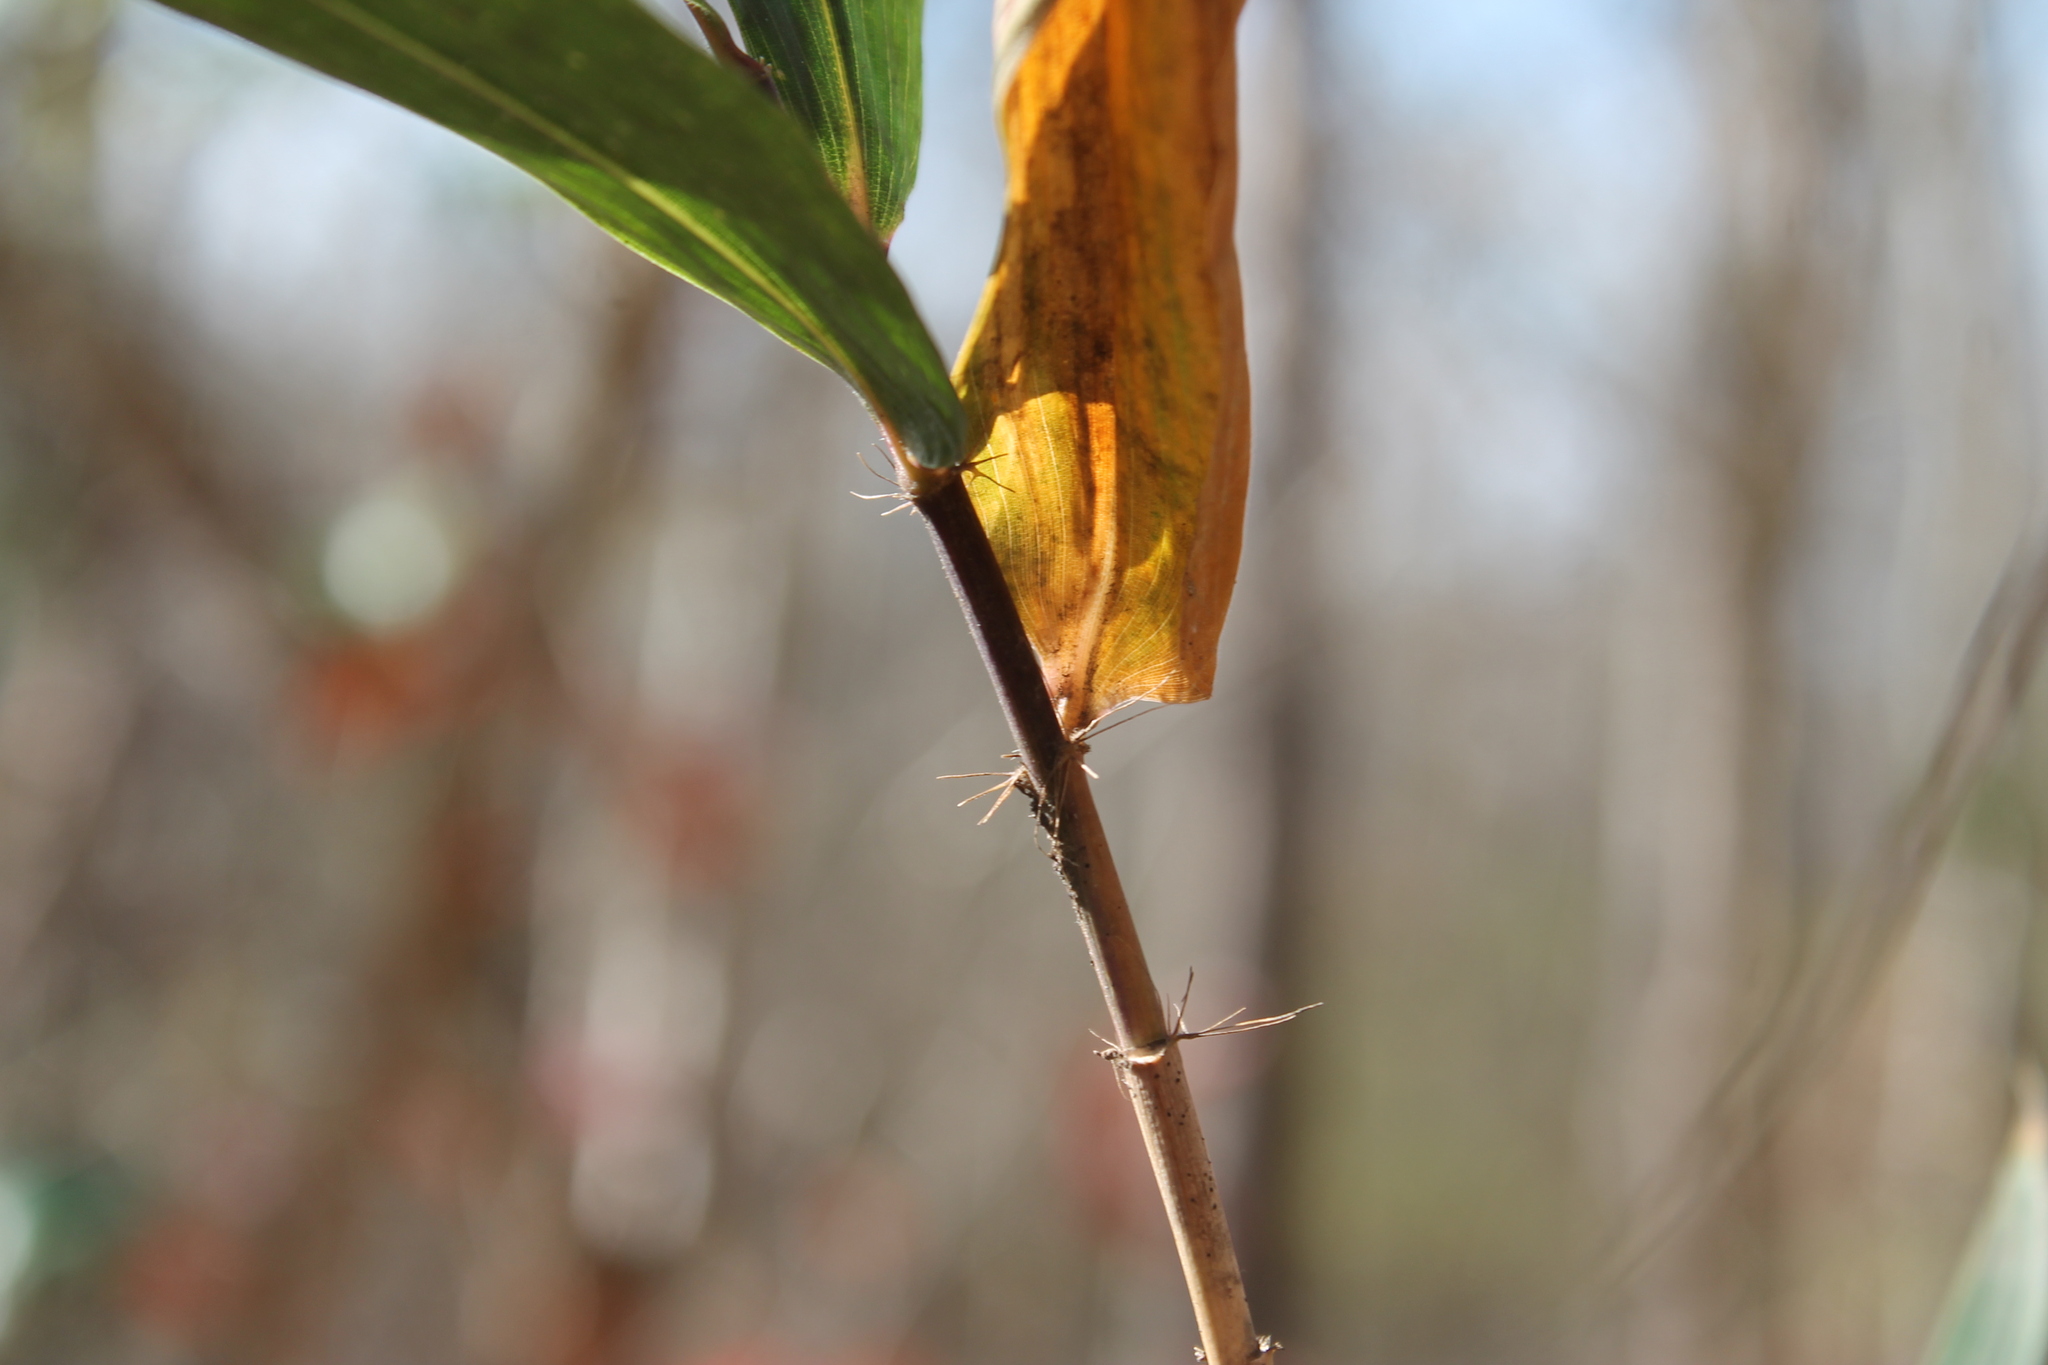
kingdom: Plantae
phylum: Tracheophyta
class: Liliopsida
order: Poales
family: Poaceae
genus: Arundinaria
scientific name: Arundinaria gigantea
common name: Giant cane
